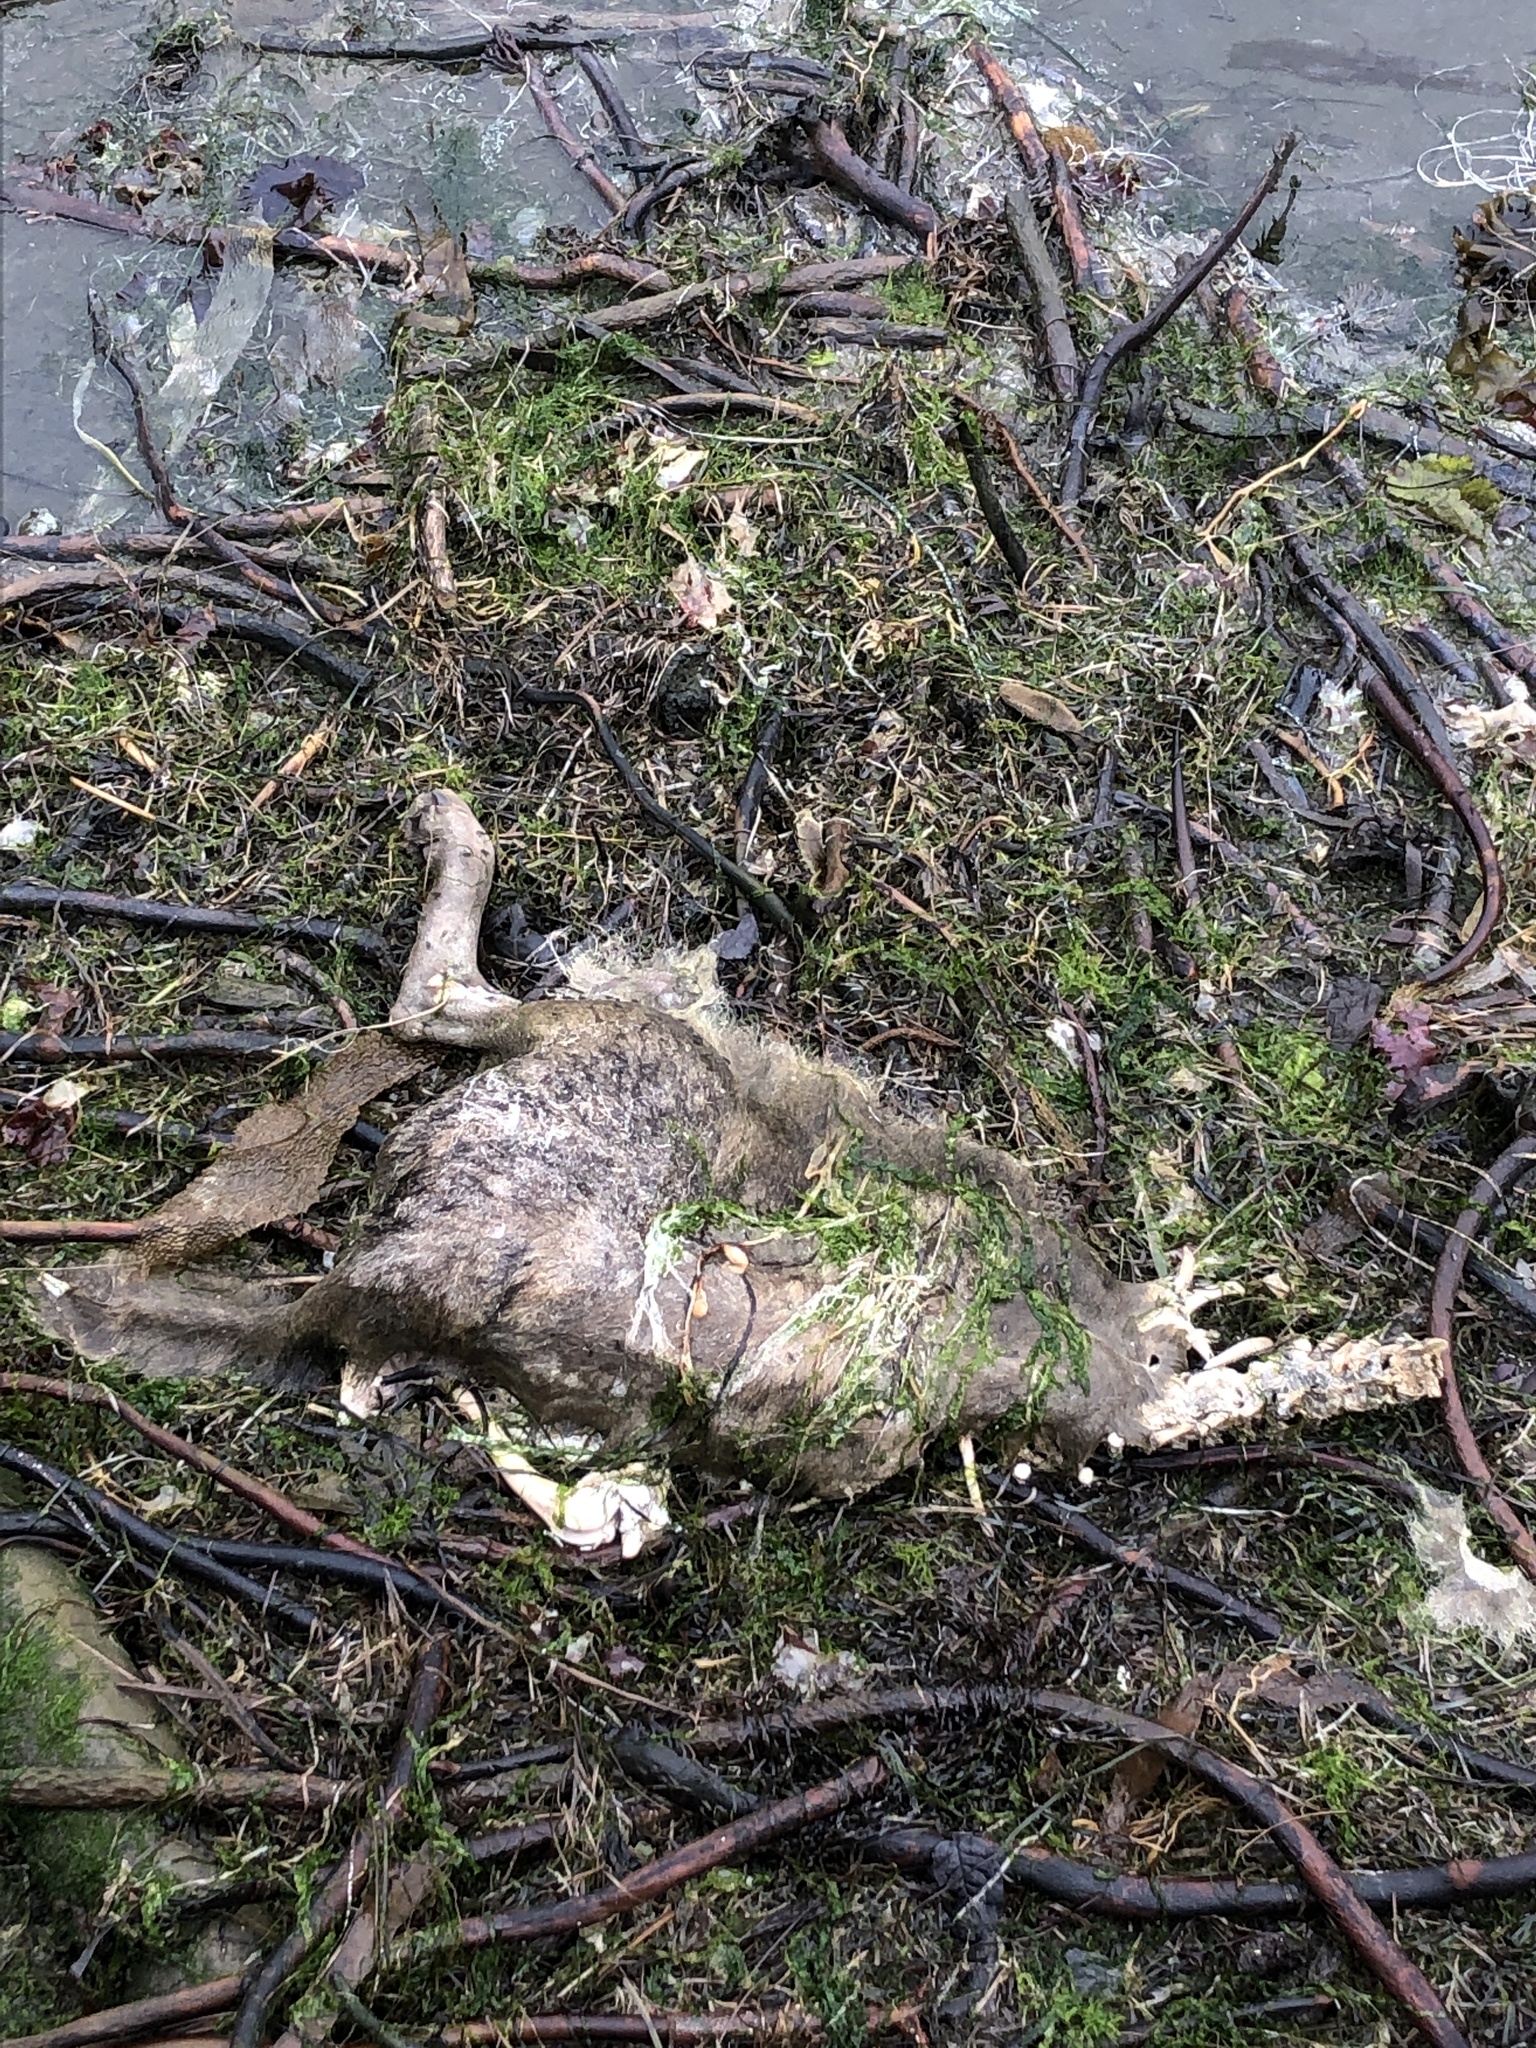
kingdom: Animalia
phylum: Chordata
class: Mammalia
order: Carnivora
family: Canidae
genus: Canis
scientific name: Canis lupus
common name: Gray wolf
